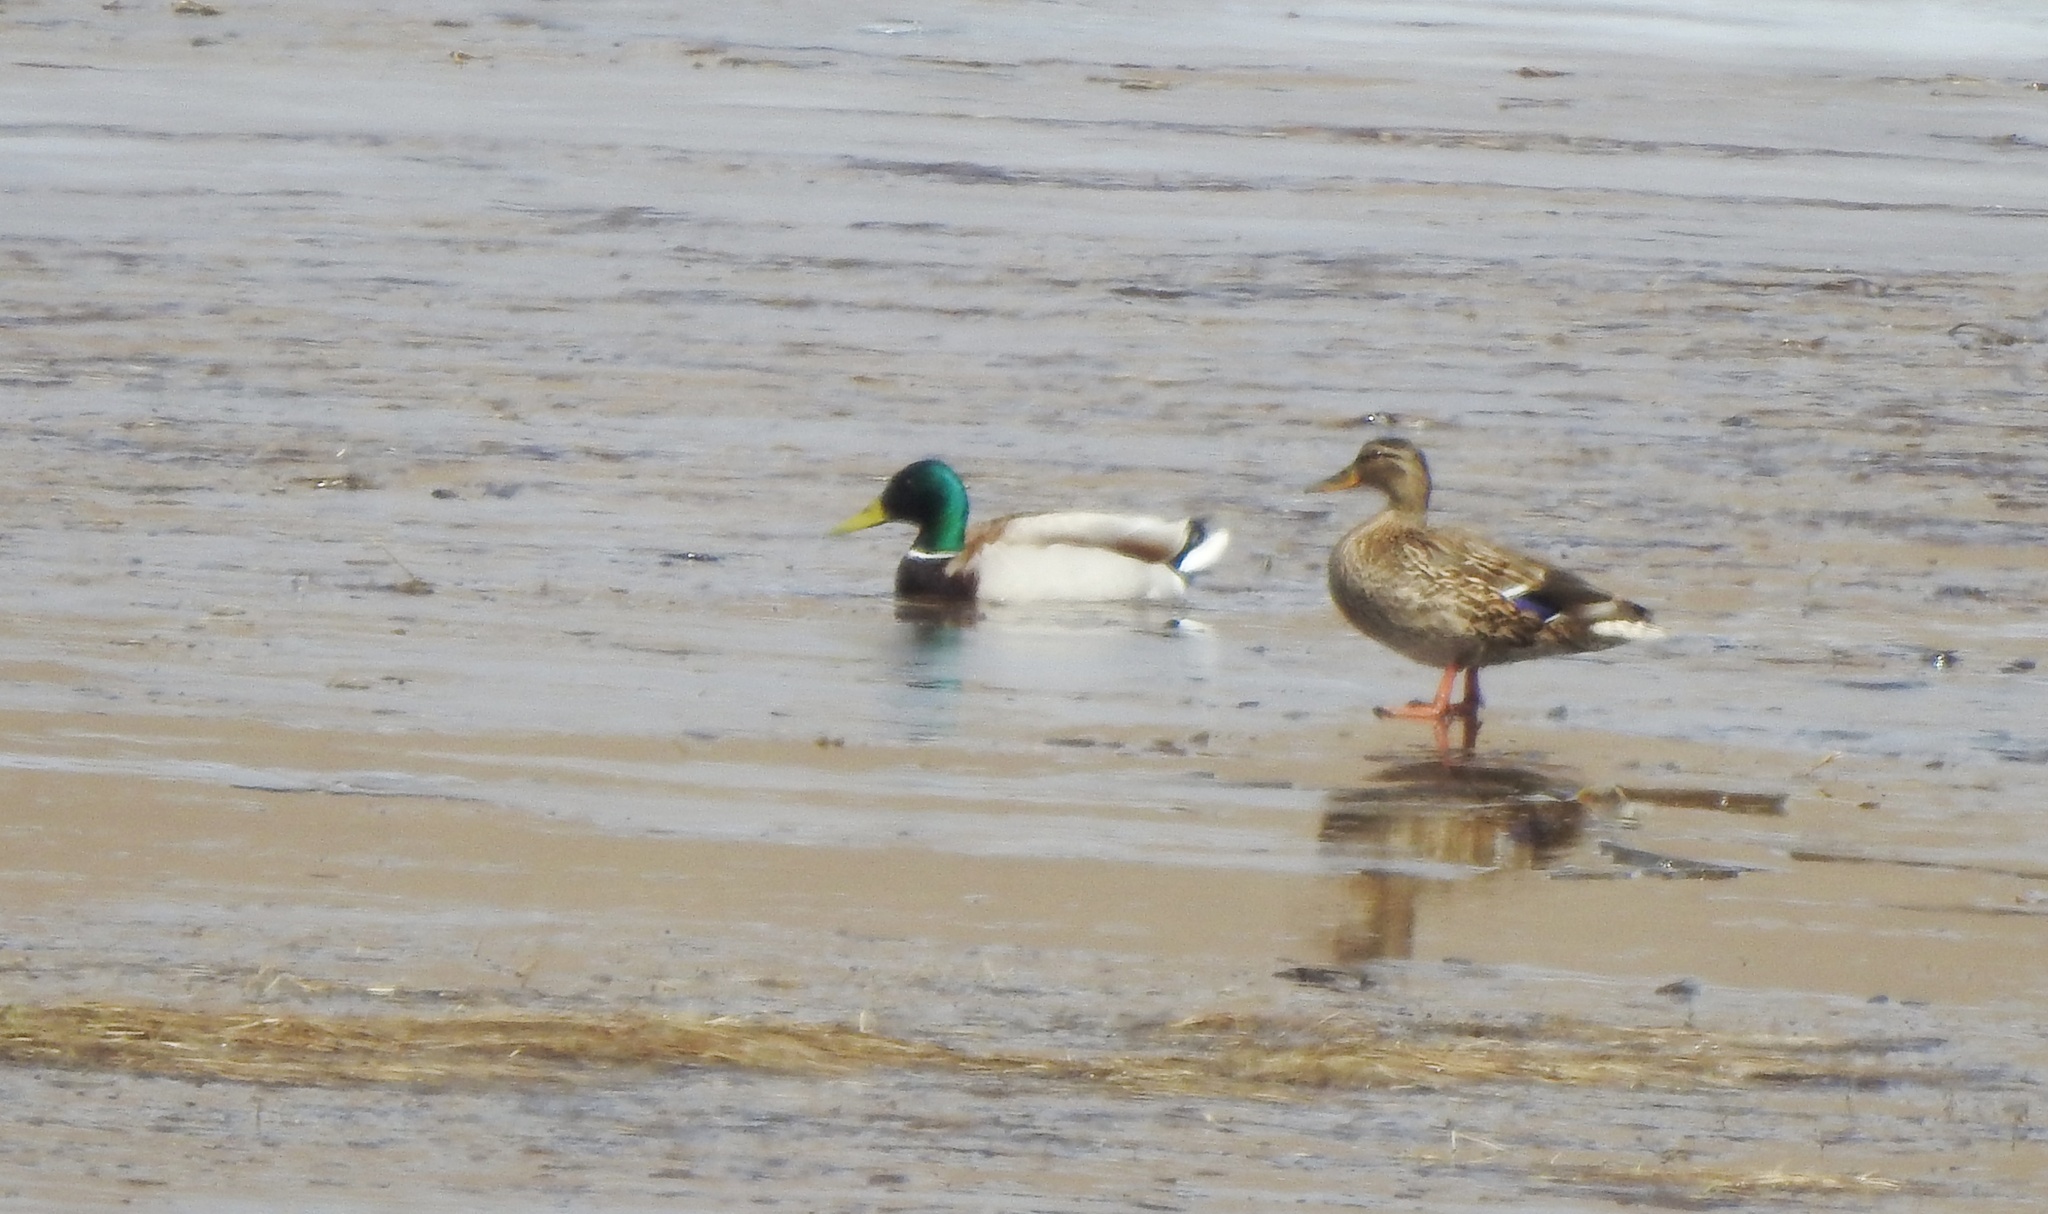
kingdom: Animalia
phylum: Chordata
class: Aves
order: Anseriformes
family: Anatidae
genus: Anas
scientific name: Anas platyrhynchos
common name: Mallard
